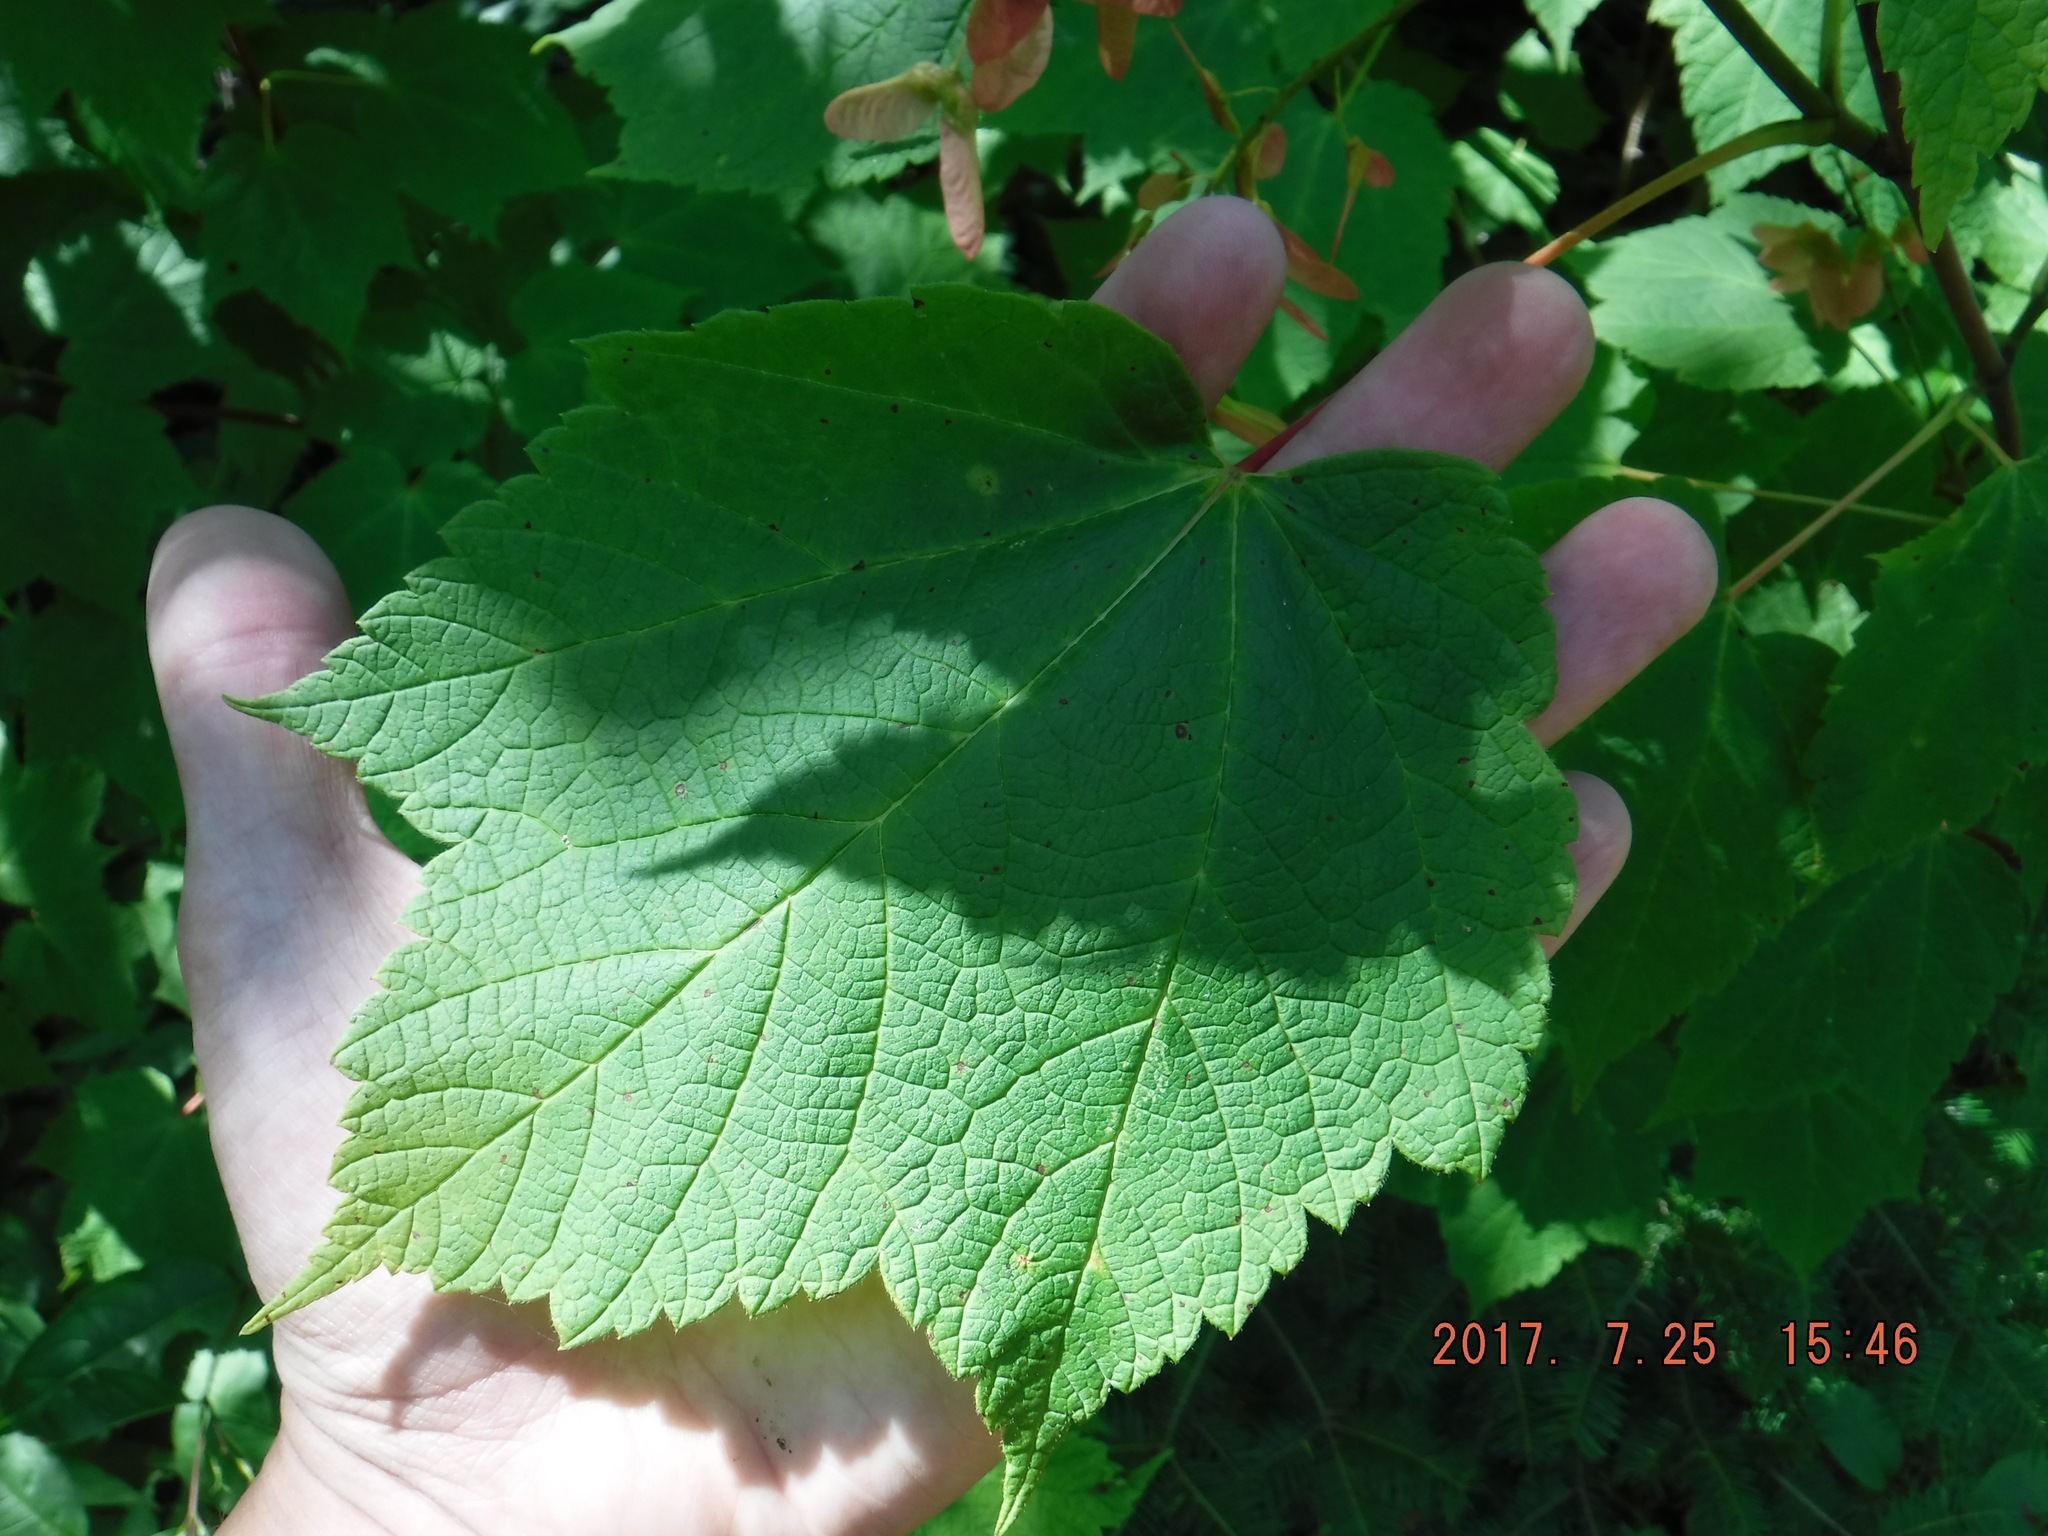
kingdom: Plantae
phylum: Tracheophyta
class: Magnoliopsida
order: Sapindales
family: Sapindaceae
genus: Acer
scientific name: Acer spicatum
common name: Mountain maple
